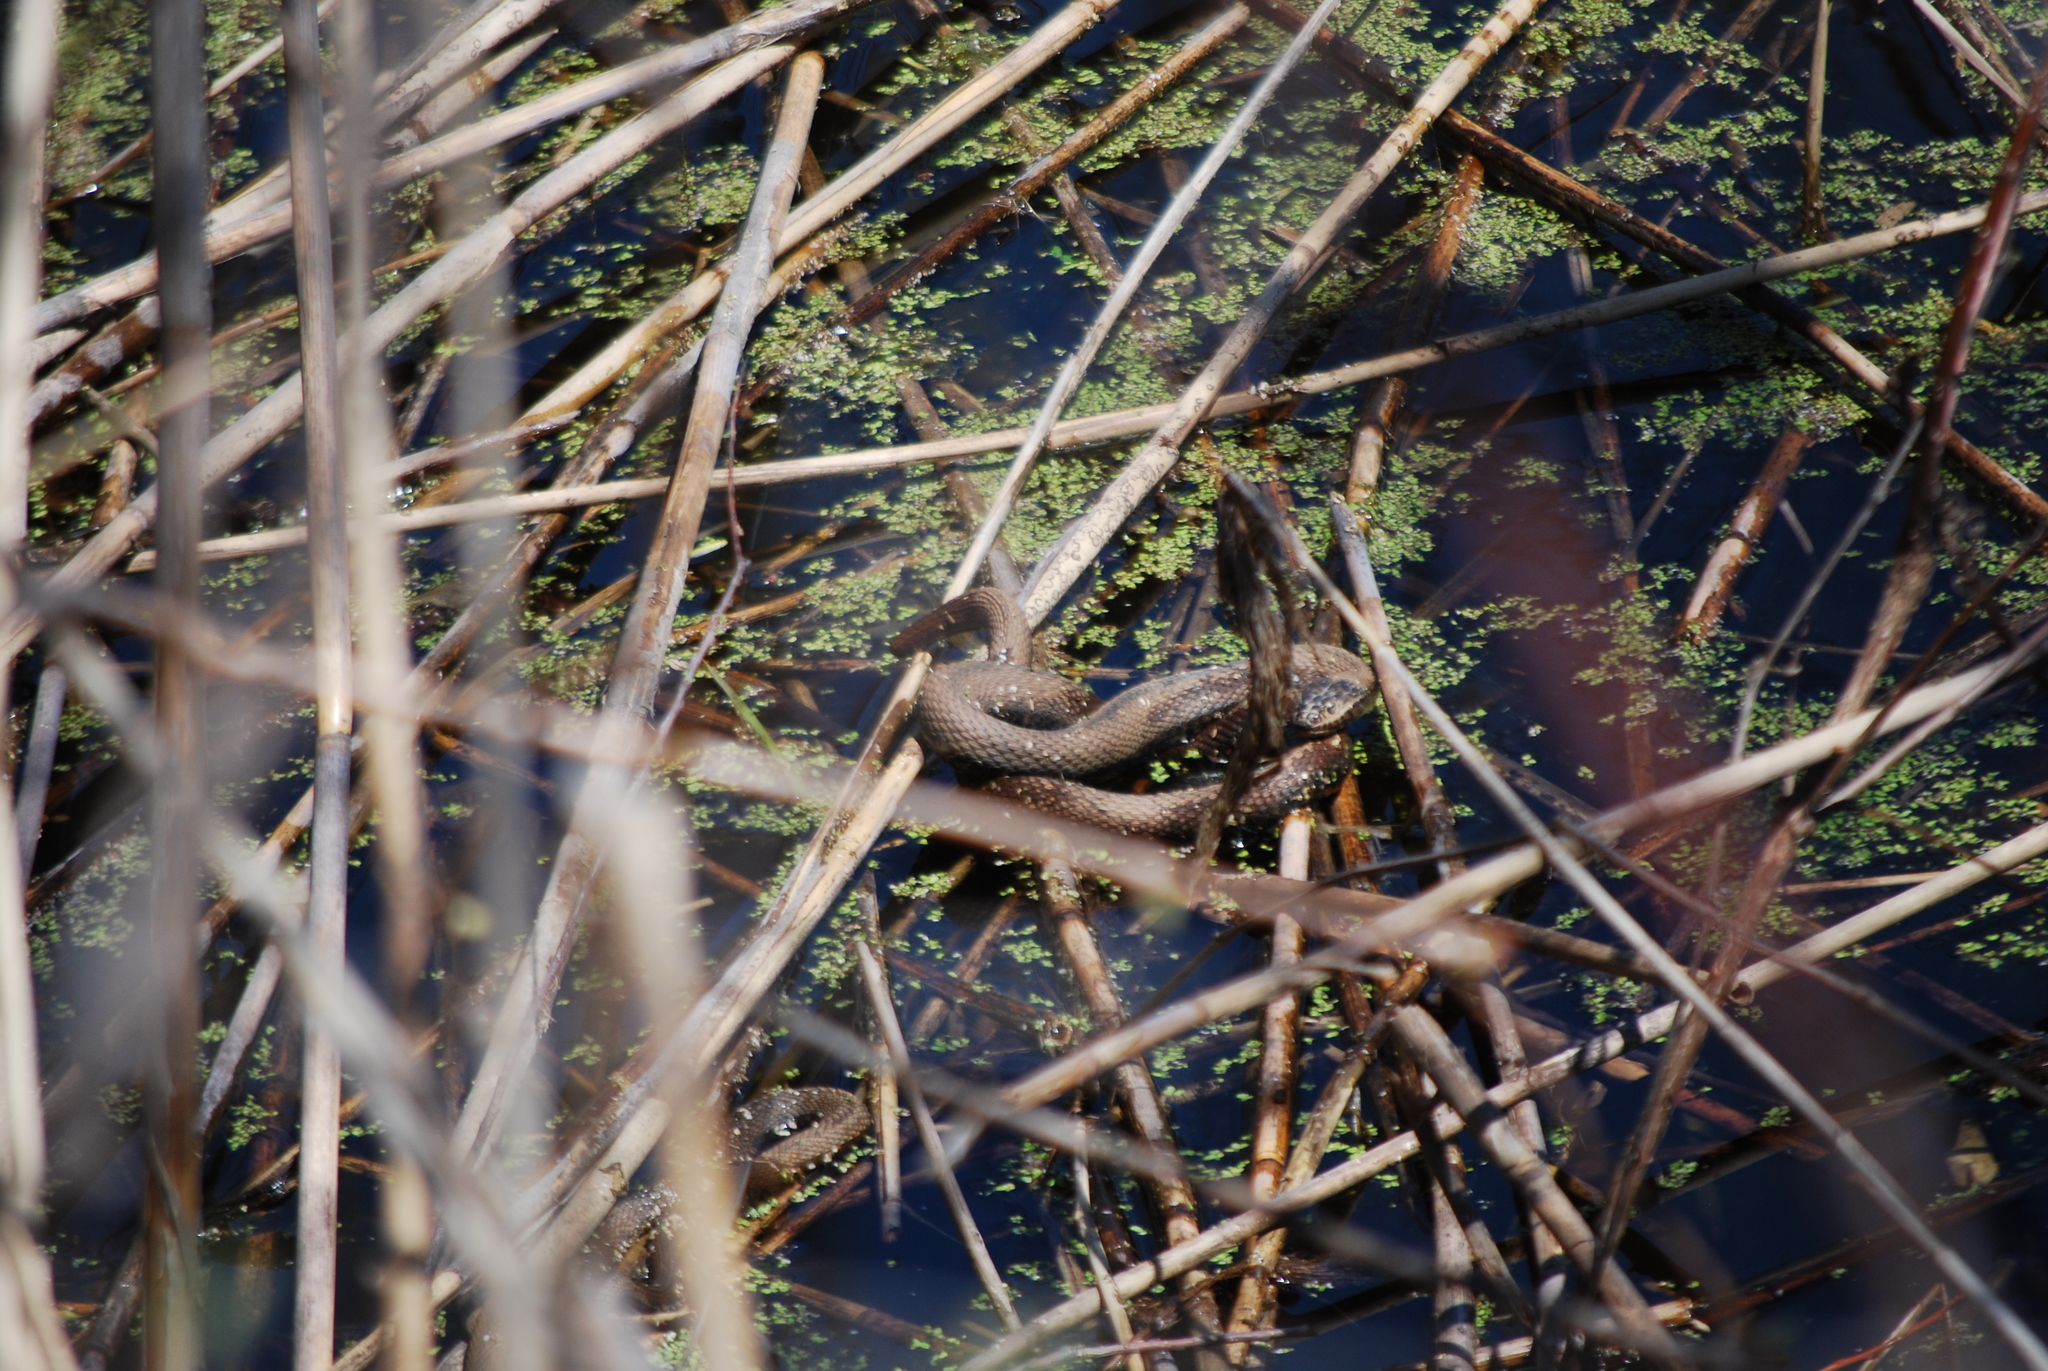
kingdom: Animalia
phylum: Chordata
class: Squamata
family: Colubridae
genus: Nerodia
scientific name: Nerodia sipedon
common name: Northern water snake
